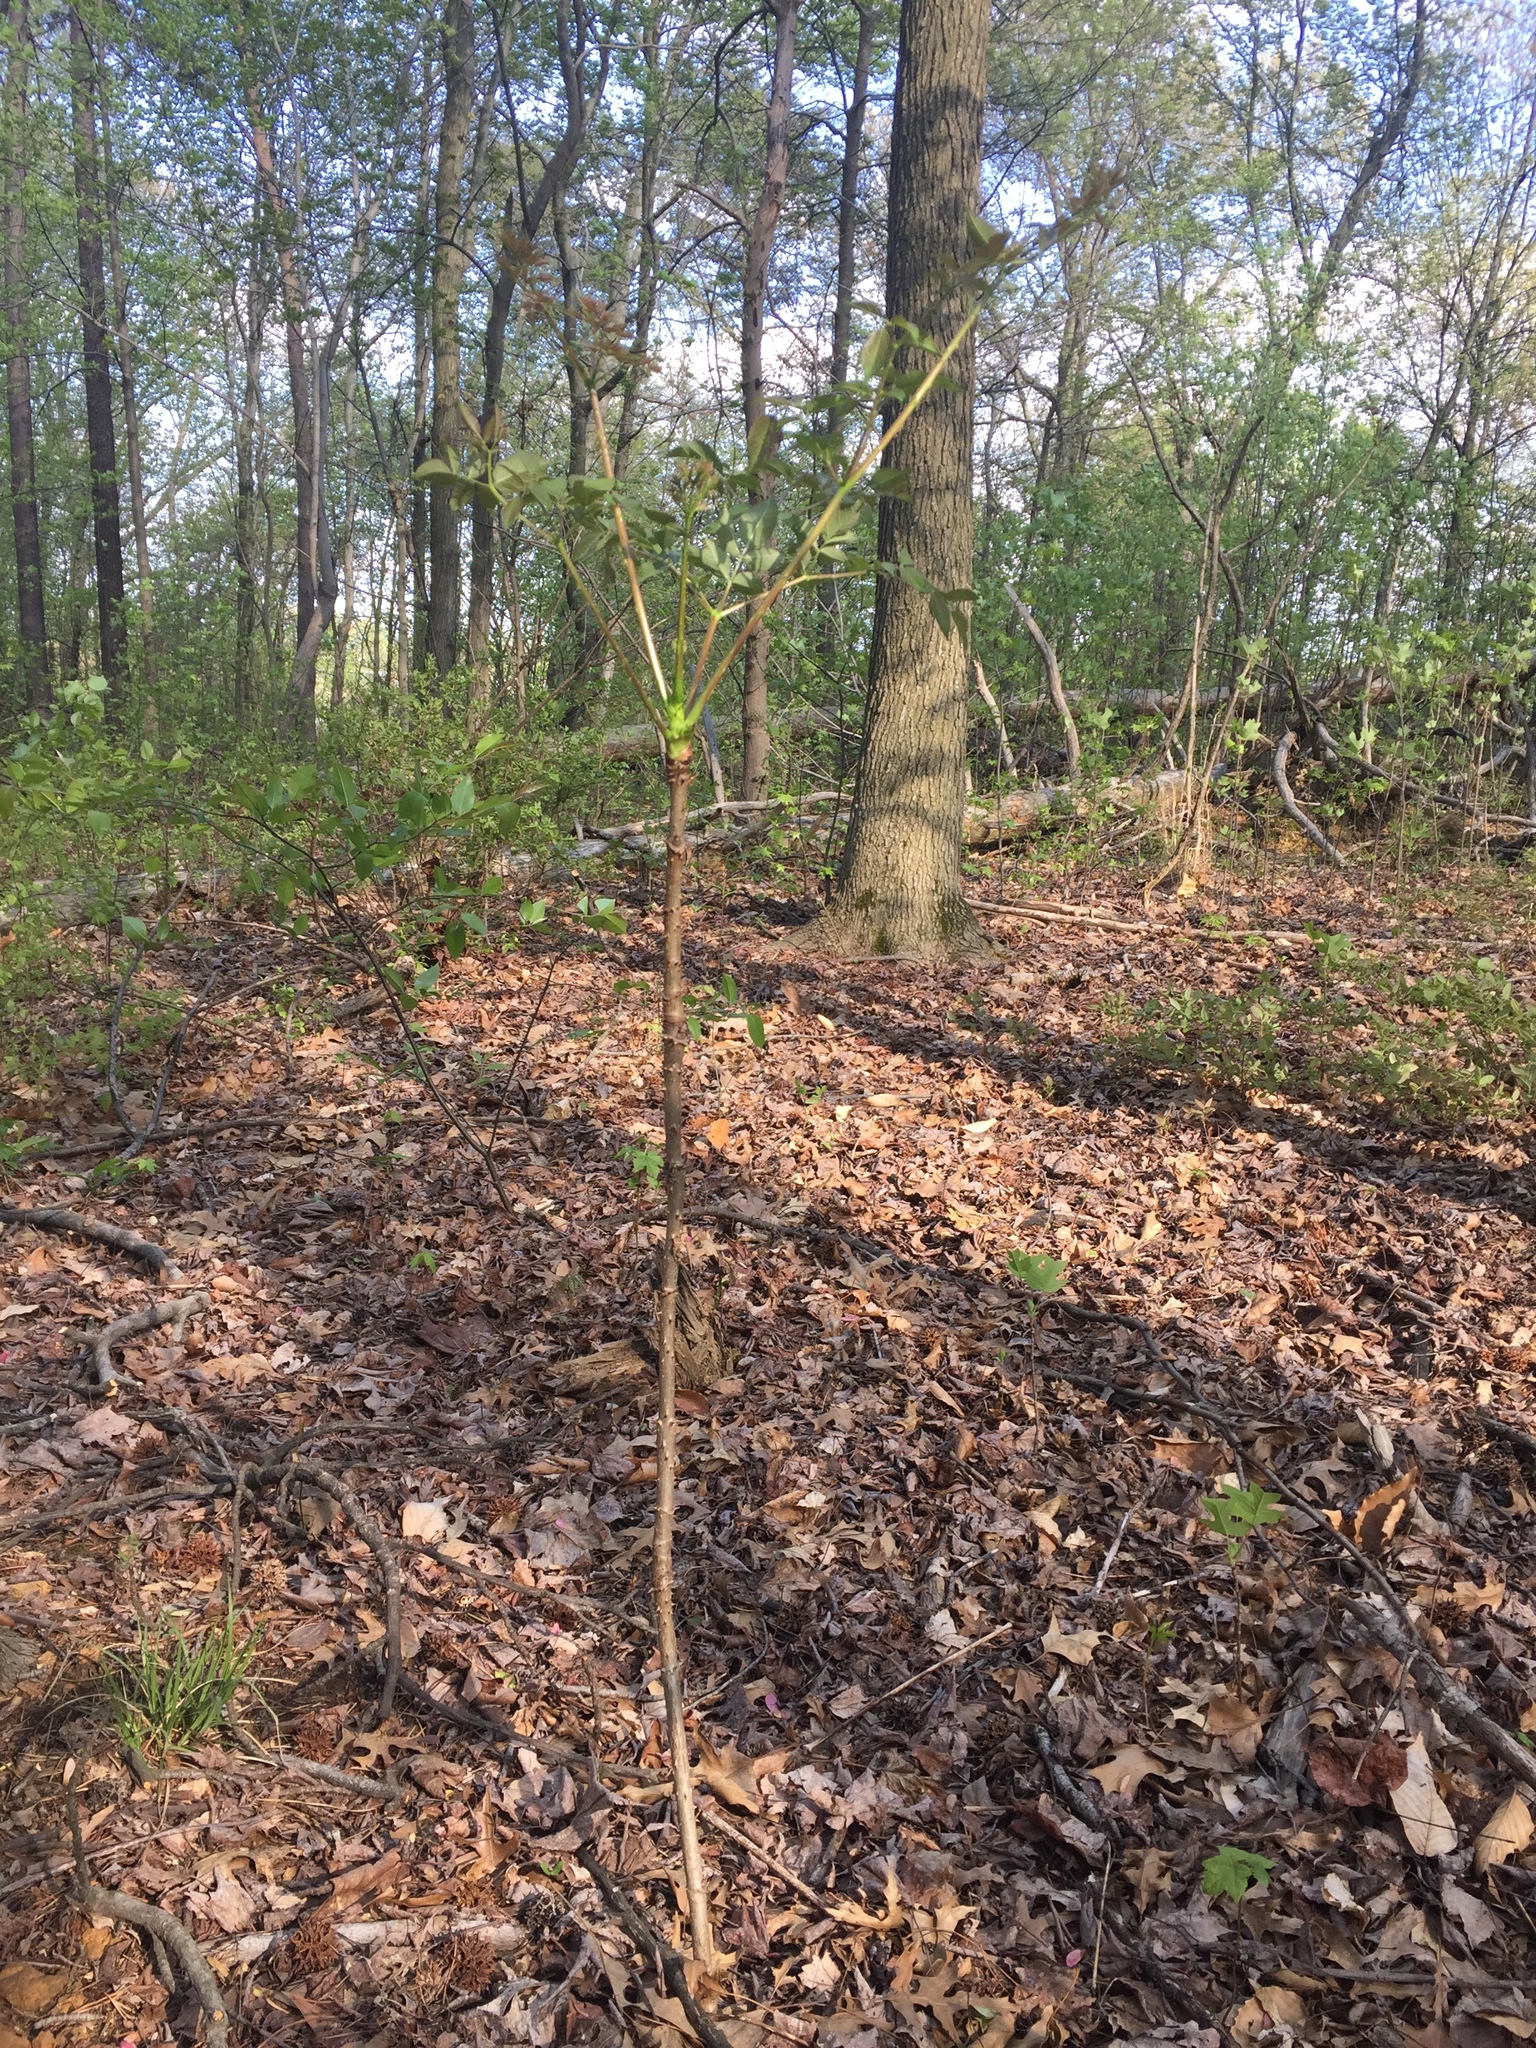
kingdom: Plantae
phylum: Tracheophyta
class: Magnoliopsida
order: Apiales
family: Araliaceae
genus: Aralia
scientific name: Aralia spinosa
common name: Hercules'-club
